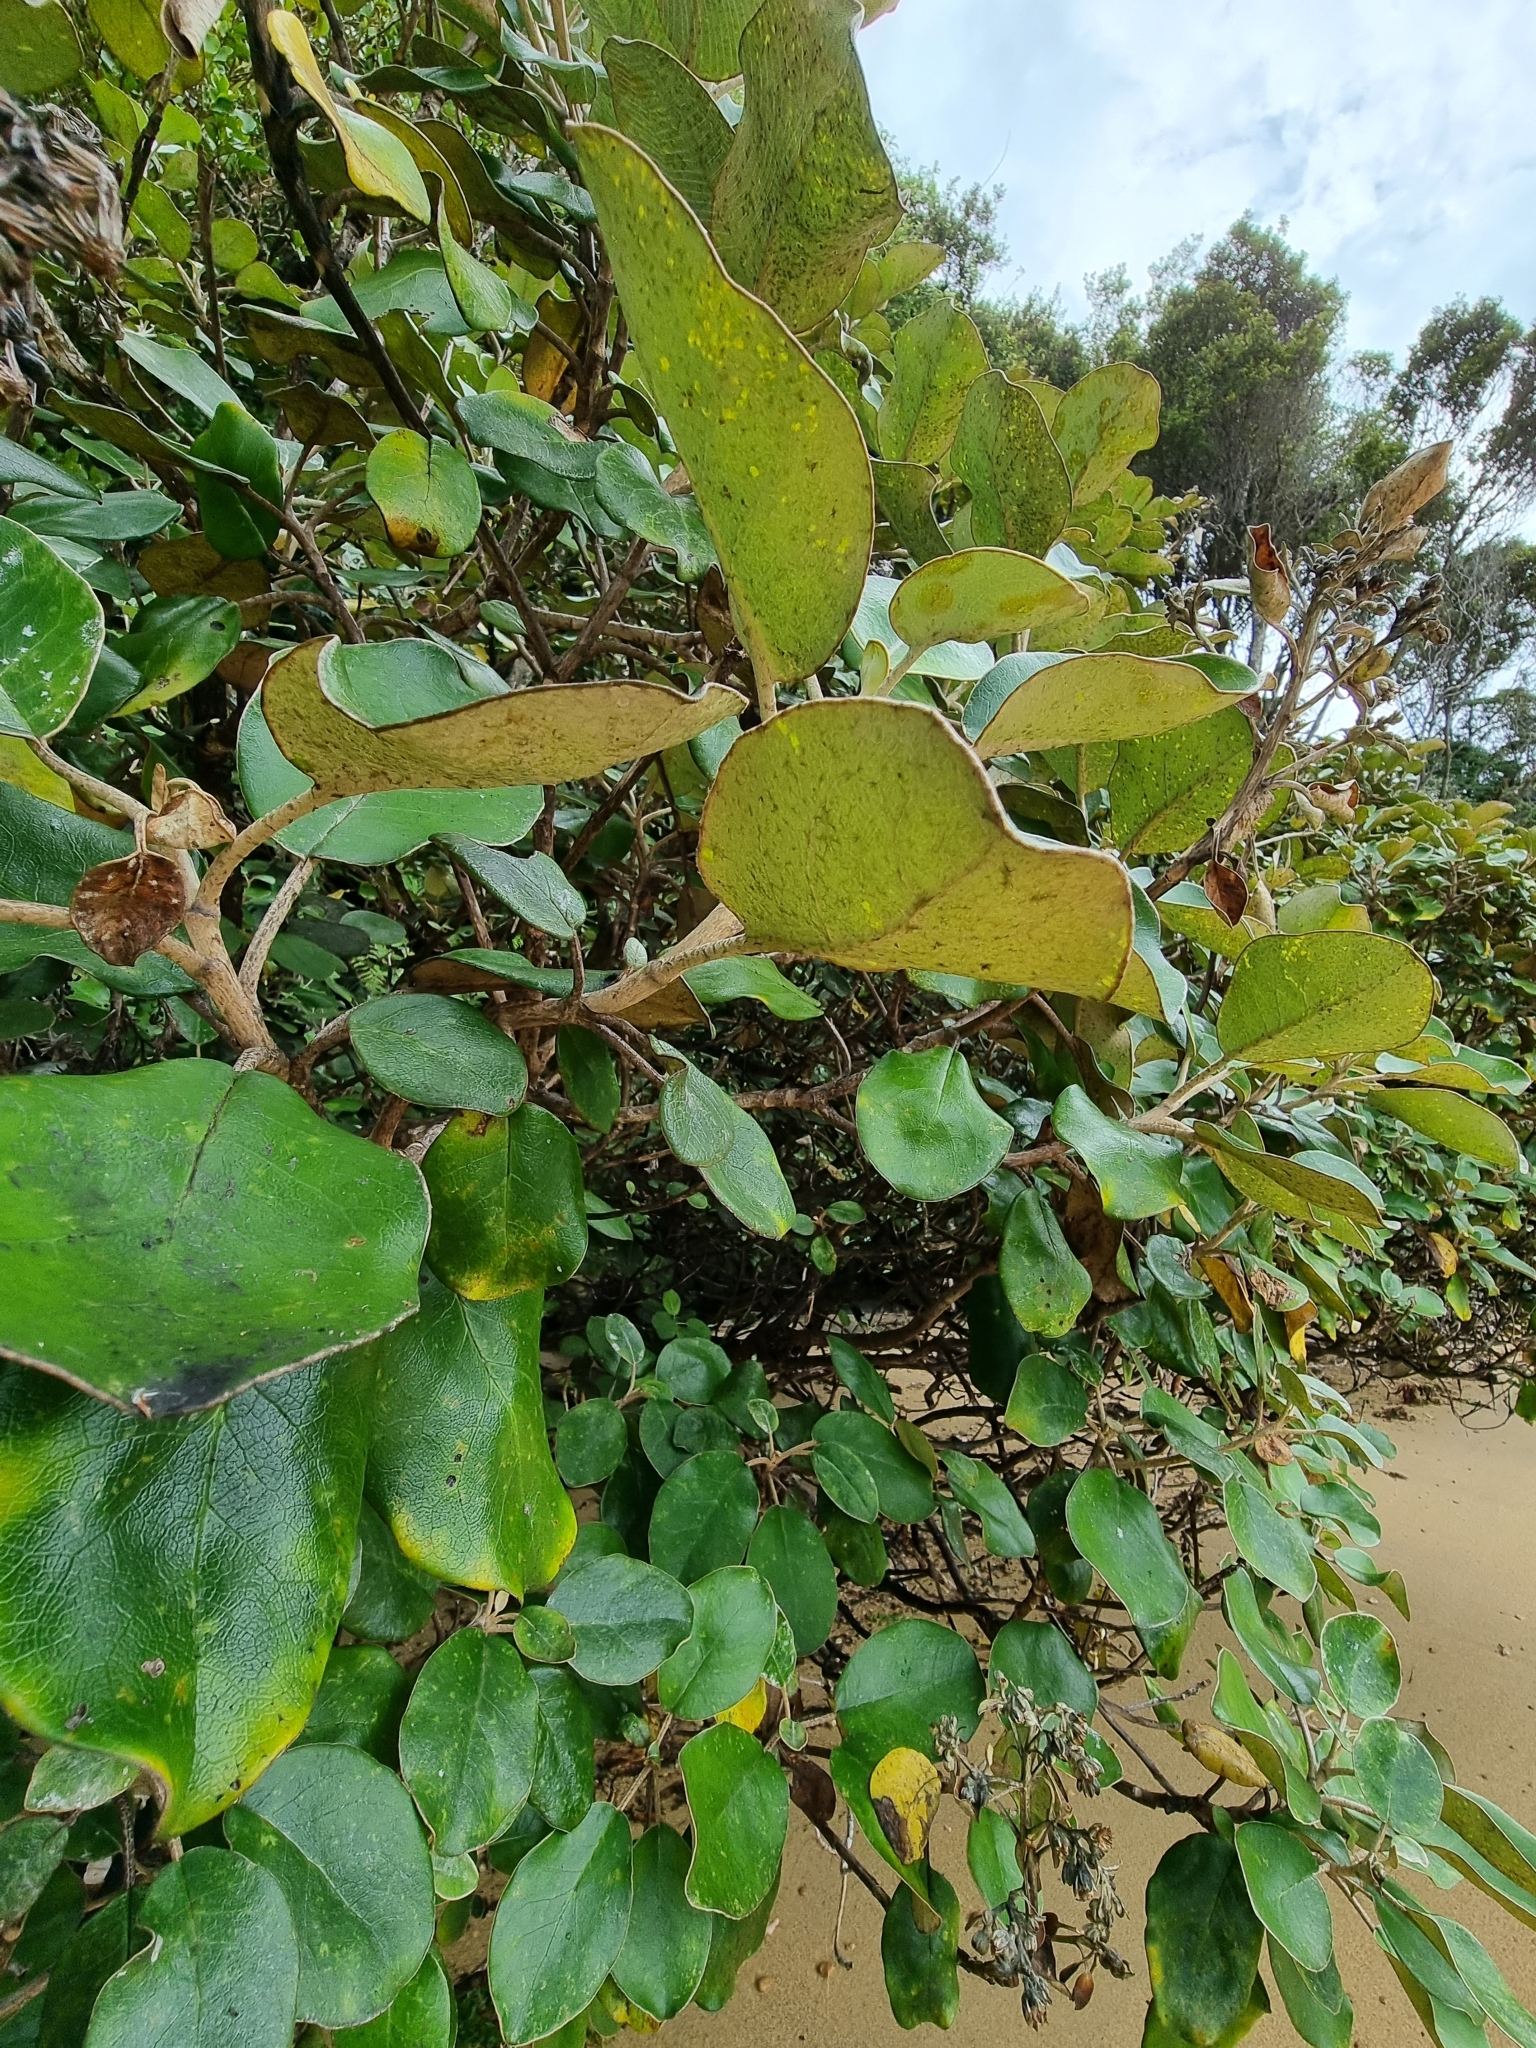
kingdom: Plantae
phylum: Tracheophyta
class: Magnoliopsida
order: Asterales
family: Asteraceae
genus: Brachyglottis
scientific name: Brachyglottis rotundifolia
